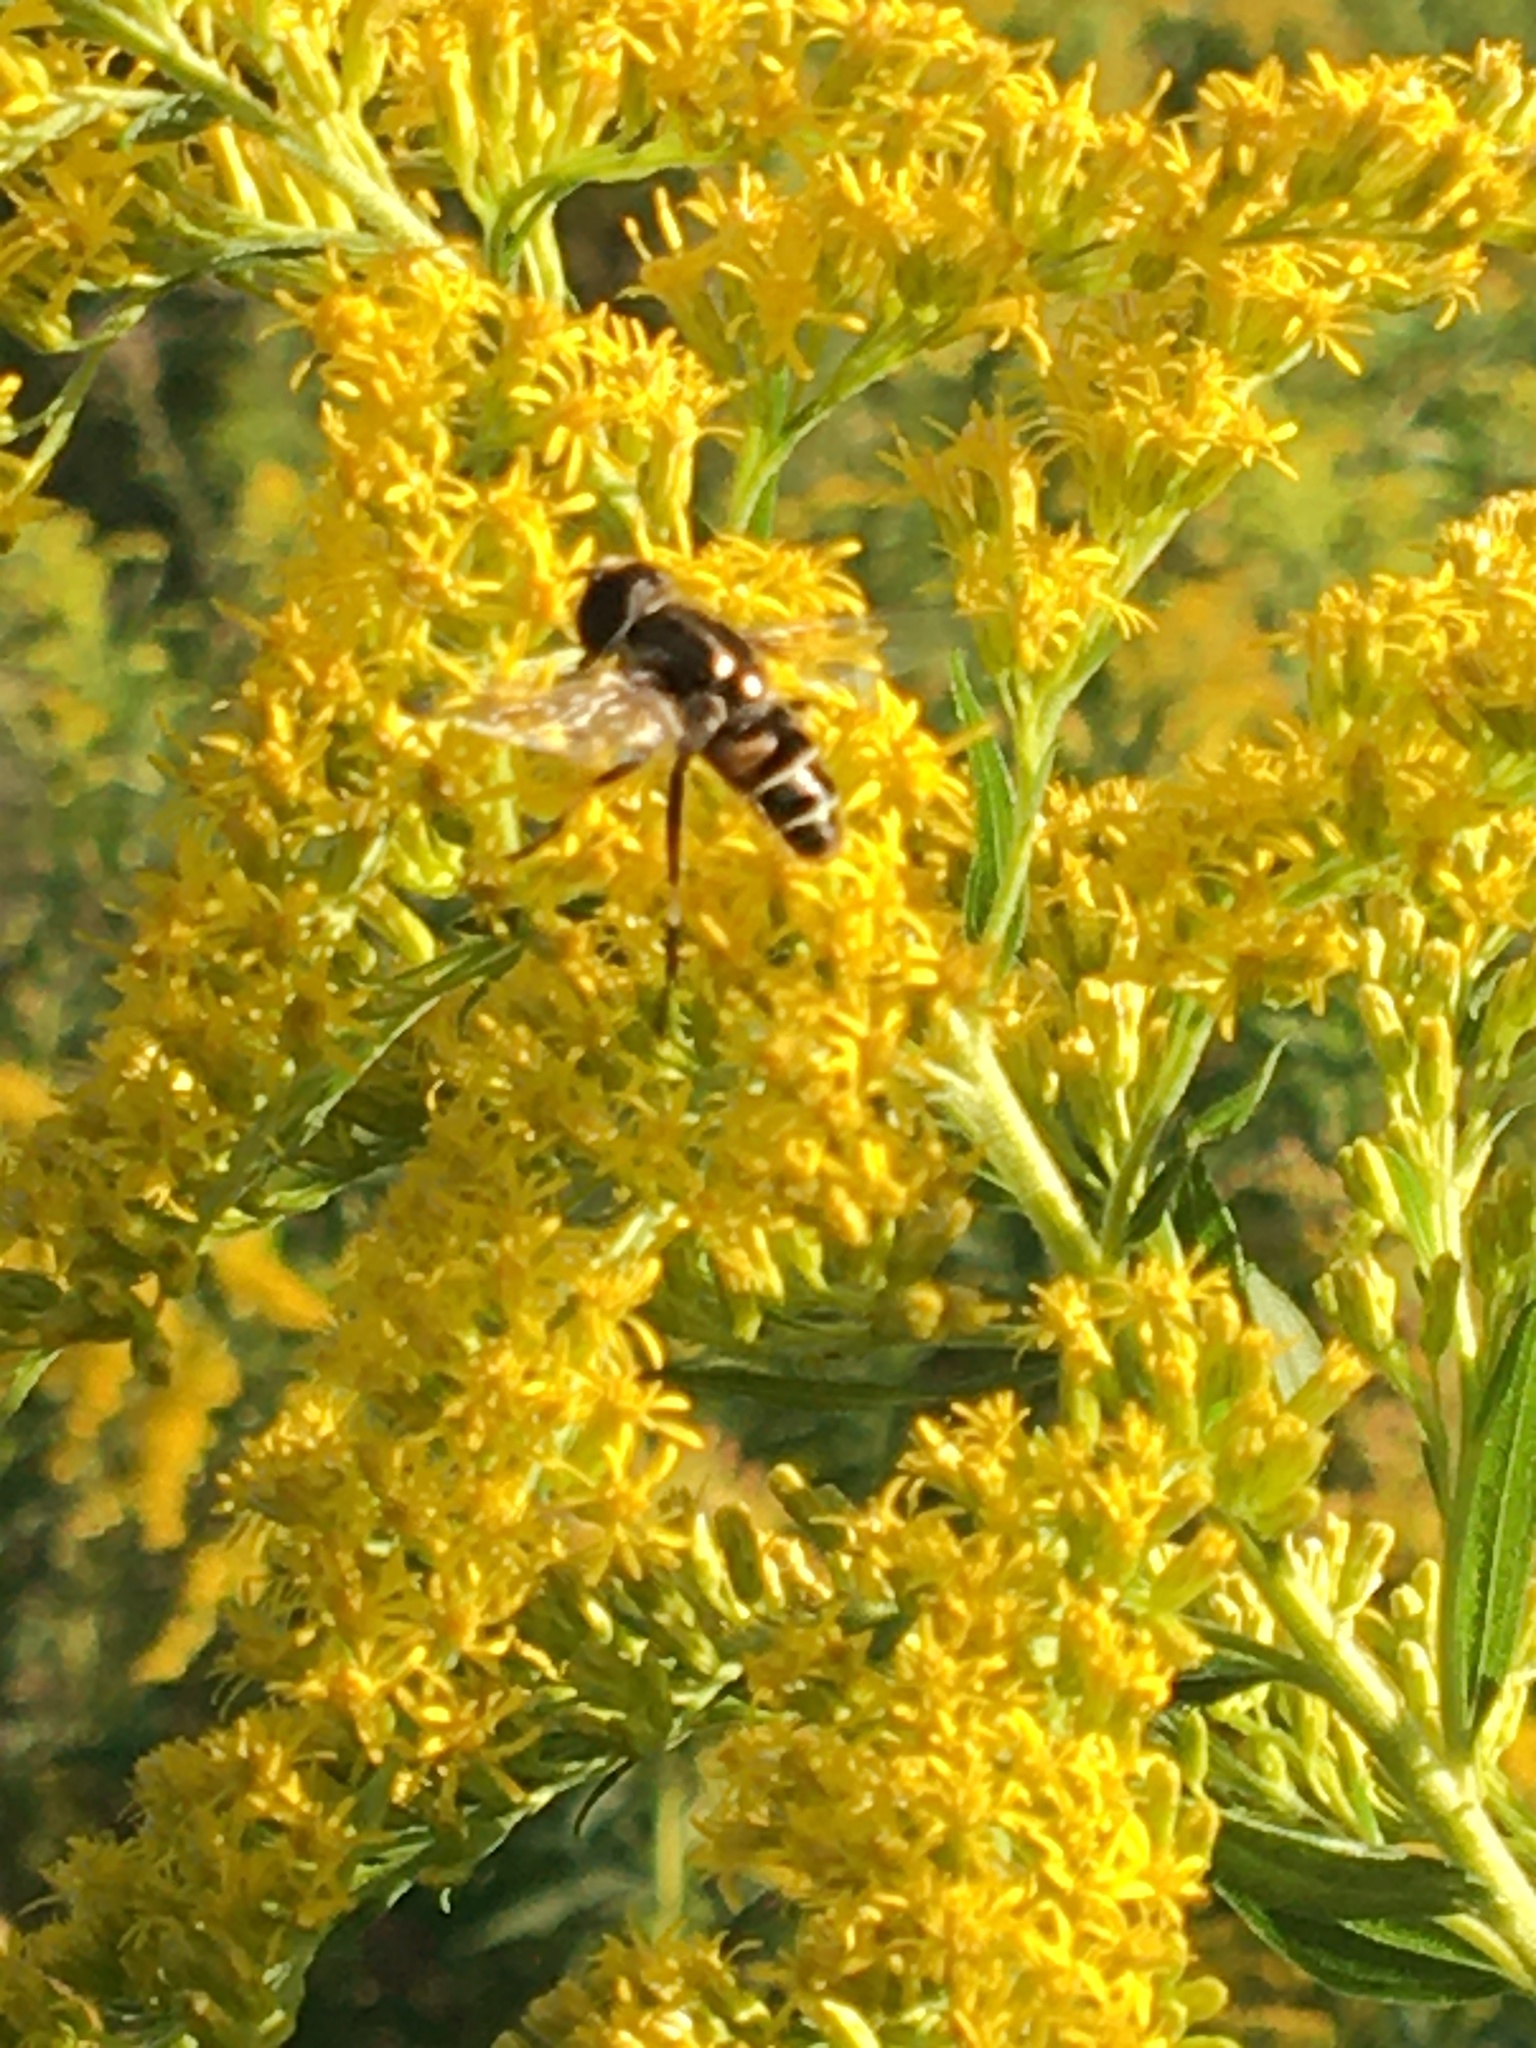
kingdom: Animalia
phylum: Arthropoda
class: Insecta
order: Diptera
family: Syrphidae
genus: Eristalis
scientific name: Eristalis dimidiata
